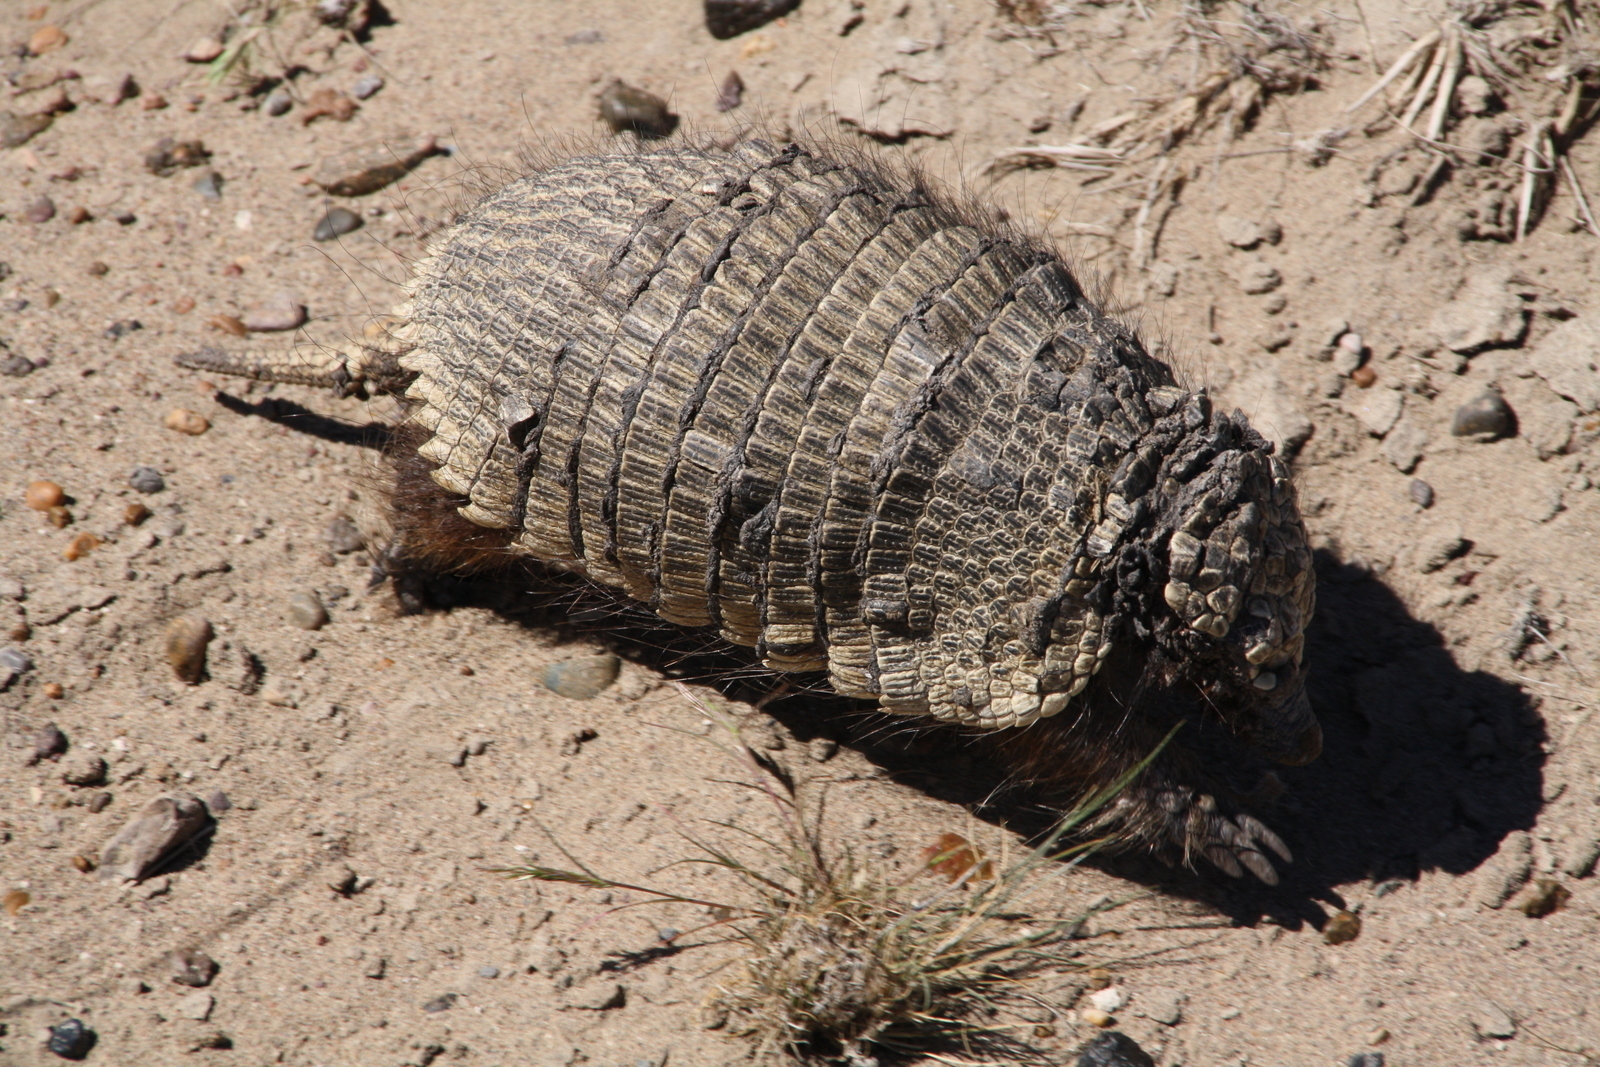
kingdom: Animalia
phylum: Chordata
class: Mammalia
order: Cingulata
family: Dasypodidae
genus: Zaedyus
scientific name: Zaedyus pichiy
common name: Pichi
